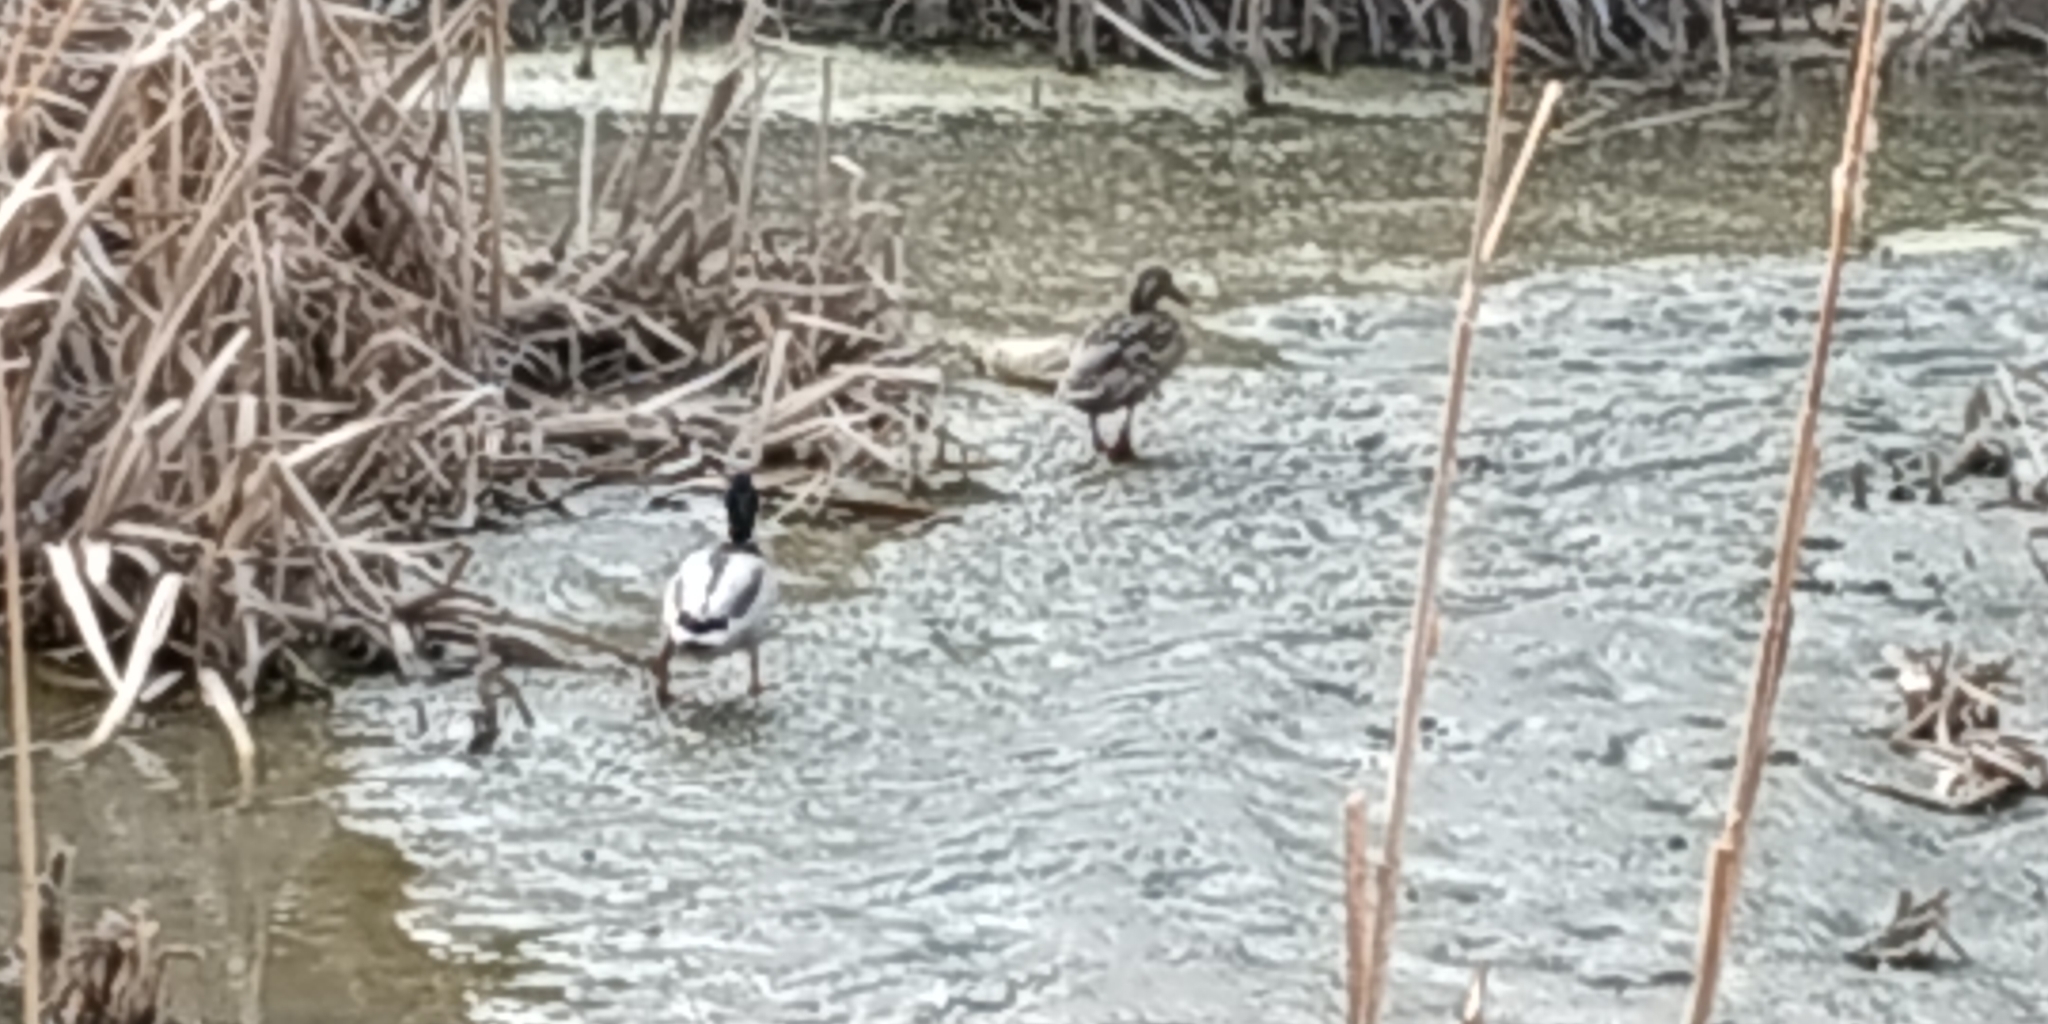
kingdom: Animalia
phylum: Chordata
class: Aves
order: Anseriformes
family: Anatidae
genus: Anas
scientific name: Anas platyrhynchos
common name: Mallard
